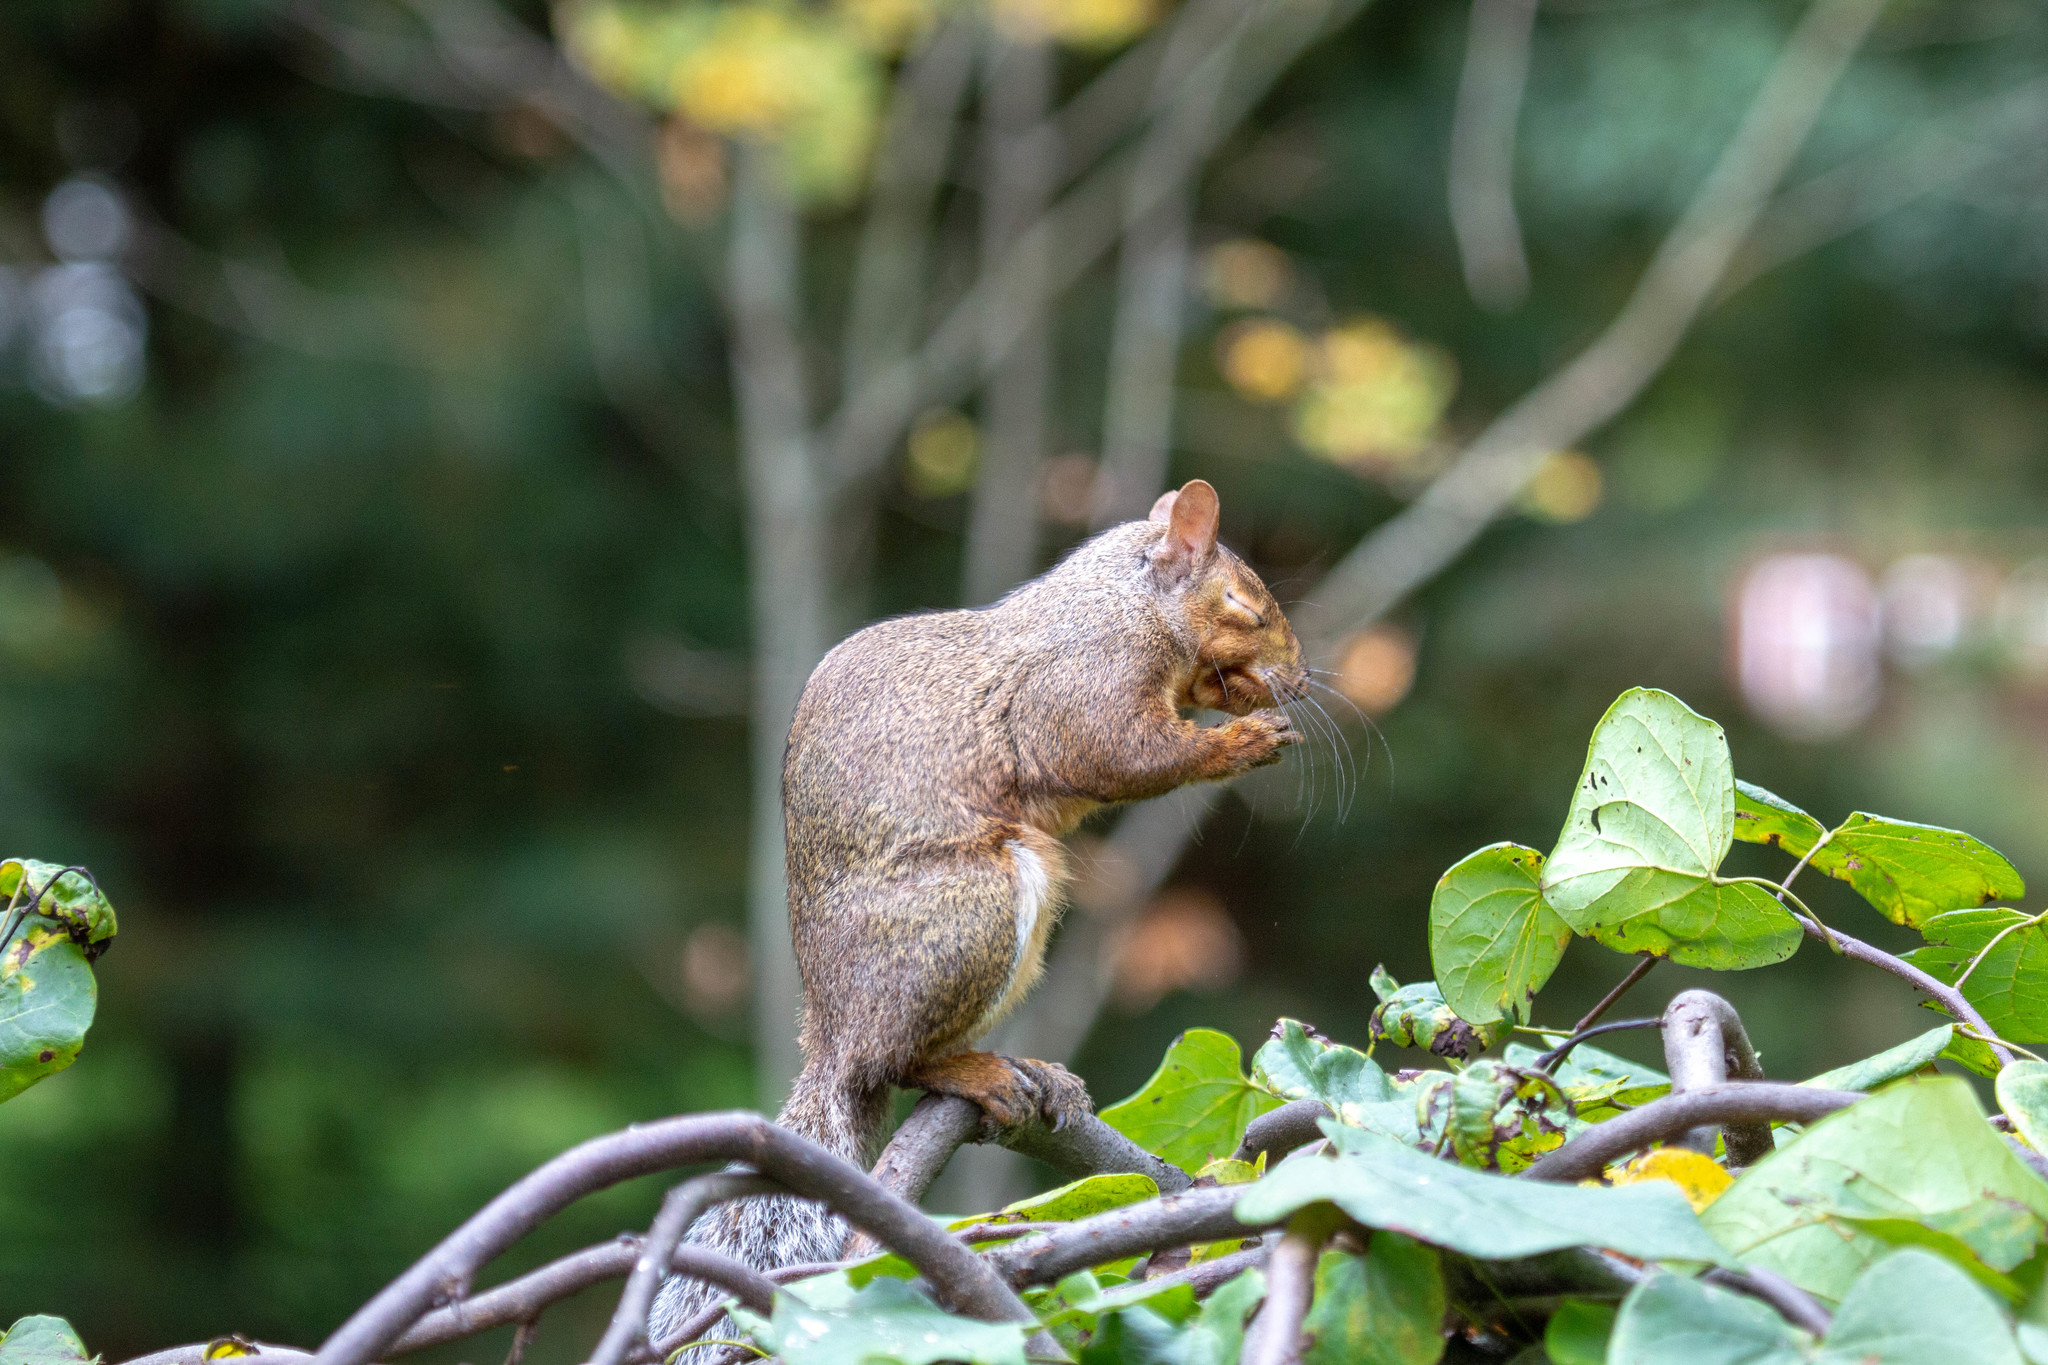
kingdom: Animalia
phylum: Chordata
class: Mammalia
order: Rodentia
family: Sciuridae
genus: Sciurus
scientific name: Sciurus carolinensis
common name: Eastern gray squirrel
